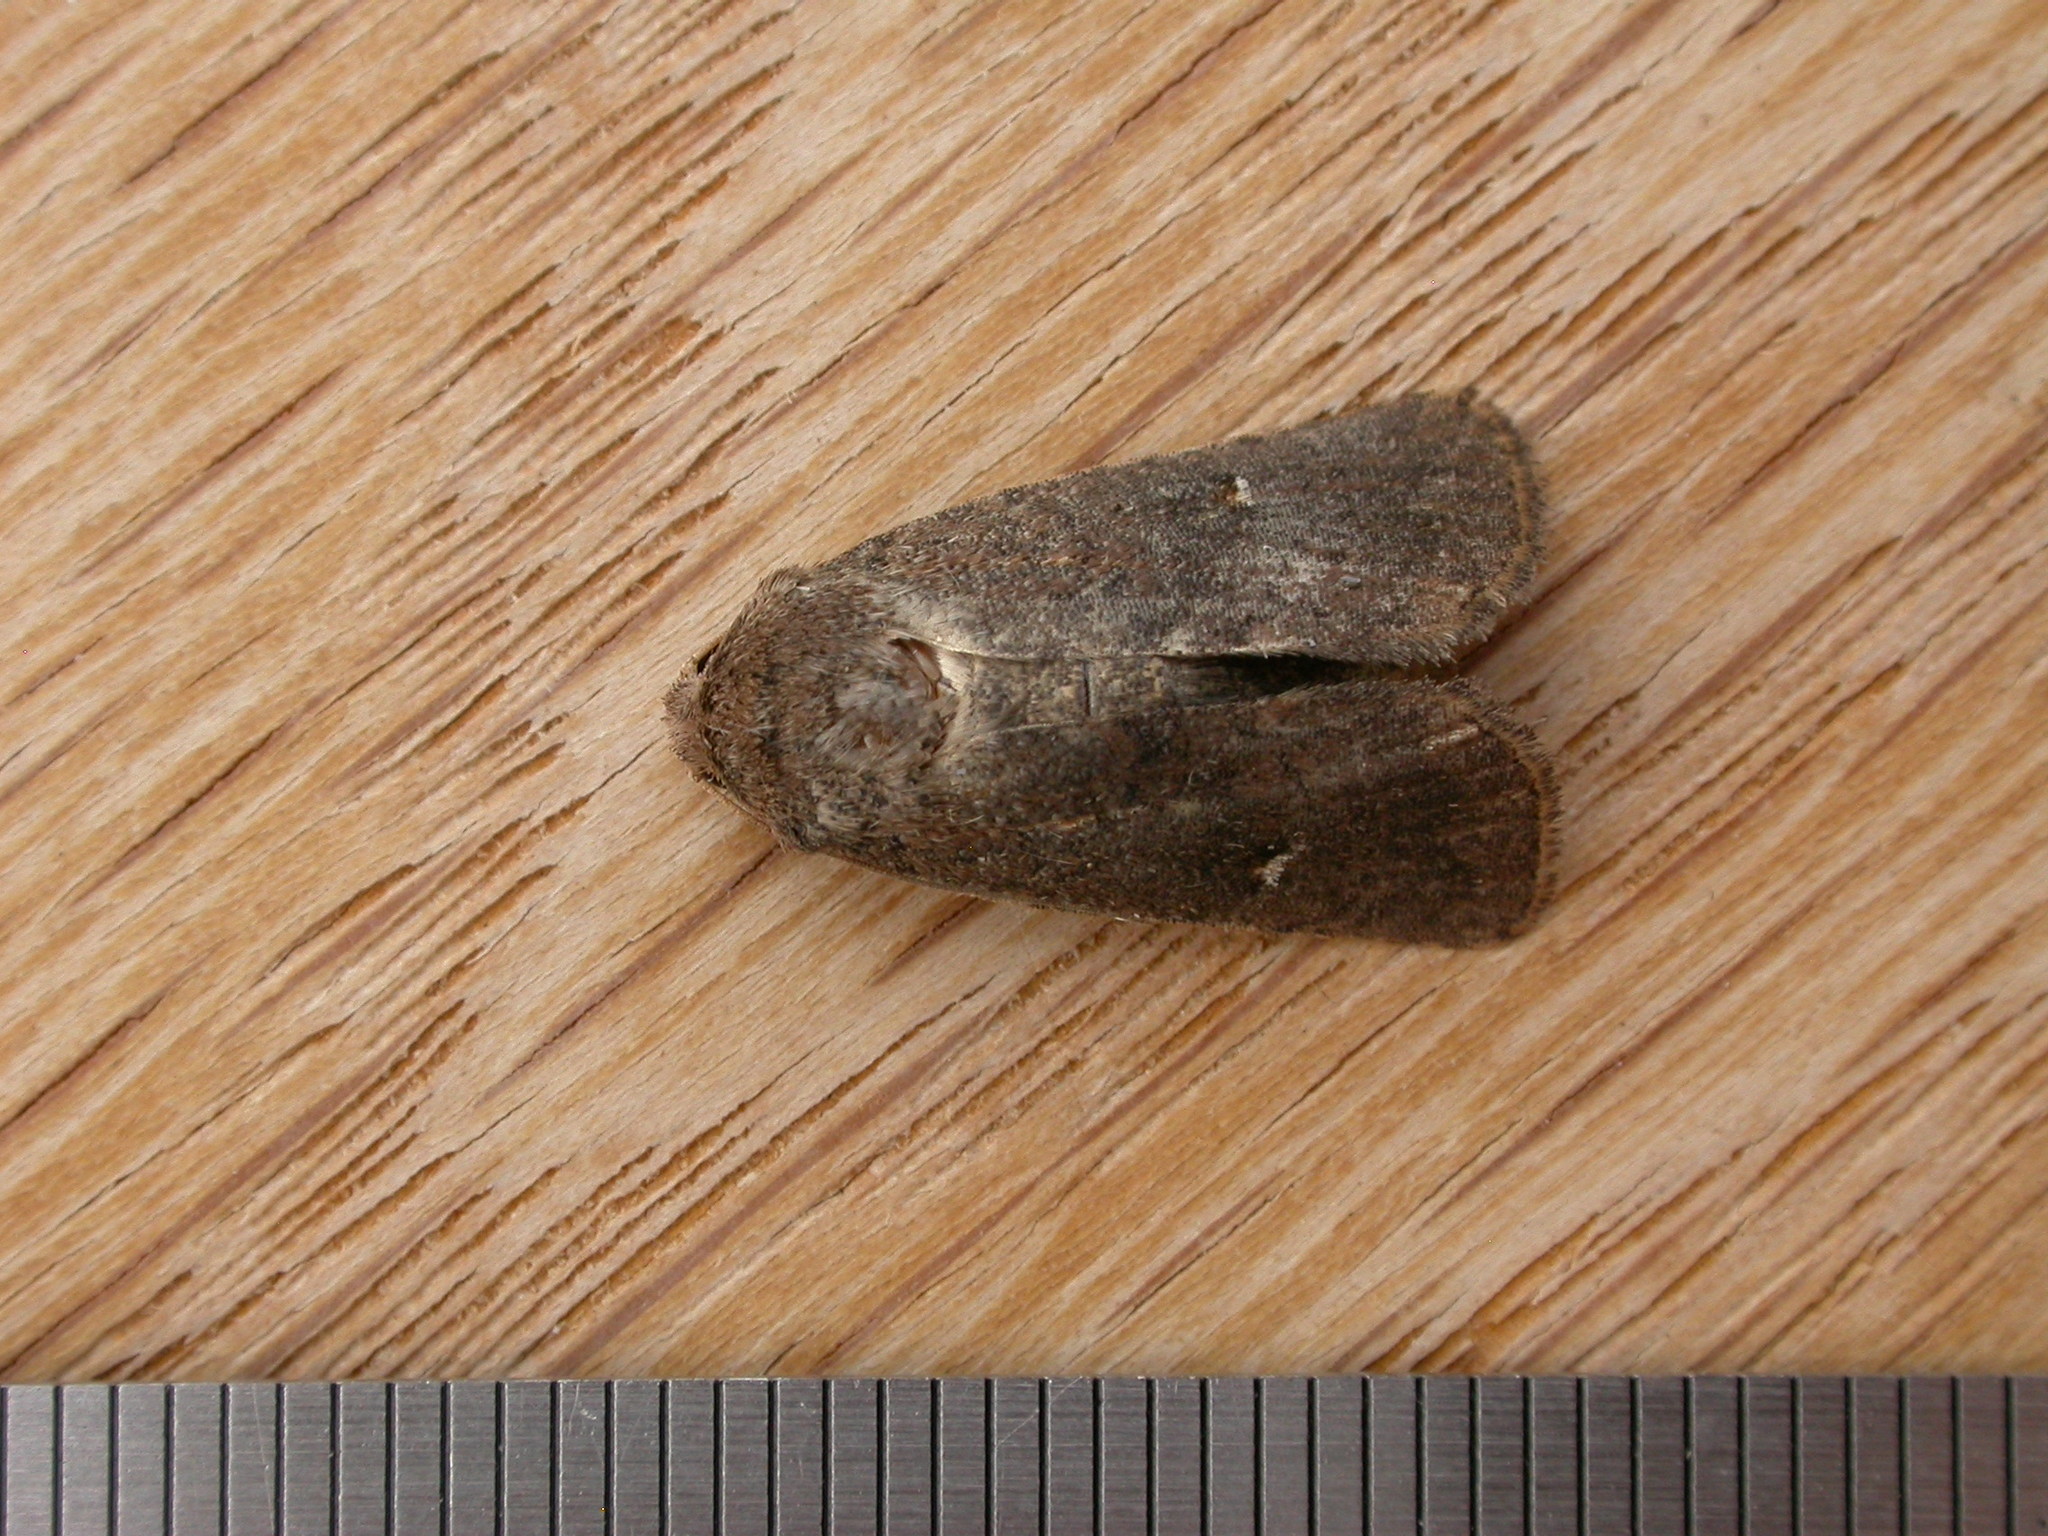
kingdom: Animalia
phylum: Arthropoda
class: Insecta
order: Lepidoptera
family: Noctuidae
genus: Proteuxoa
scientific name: Proteuxoa hypochalchis
